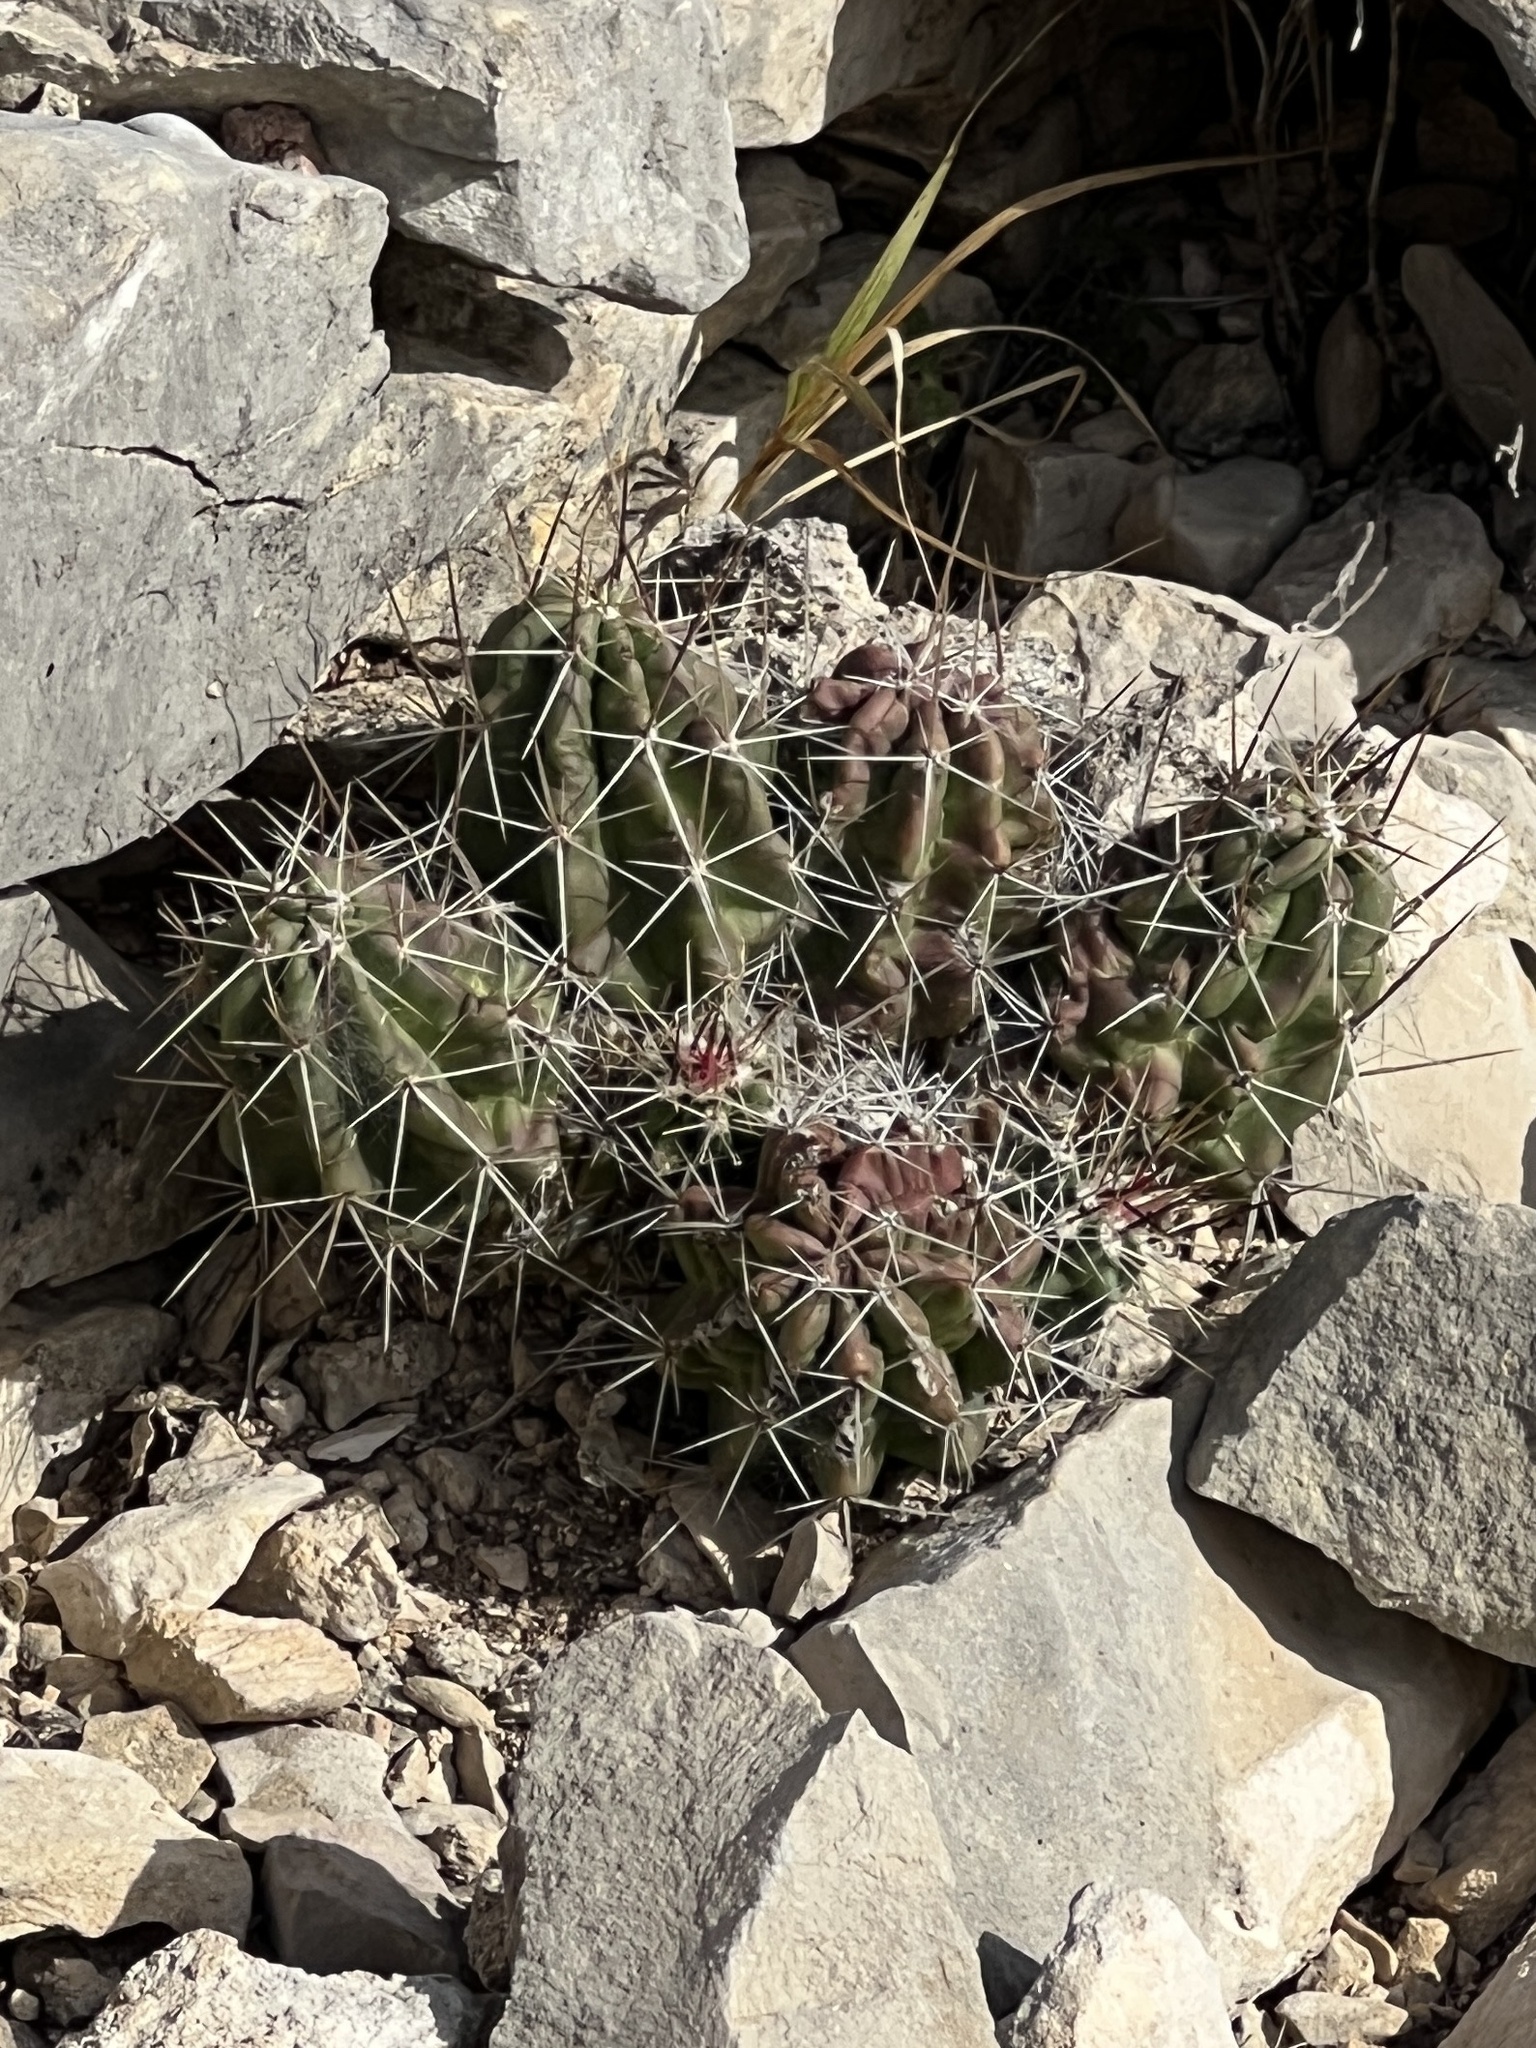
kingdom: Plantae
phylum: Tracheophyta
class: Magnoliopsida
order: Caryophyllales
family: Cactaceae
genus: Echinocereus
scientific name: Echinocereus enneacanthus
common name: Pitaya
